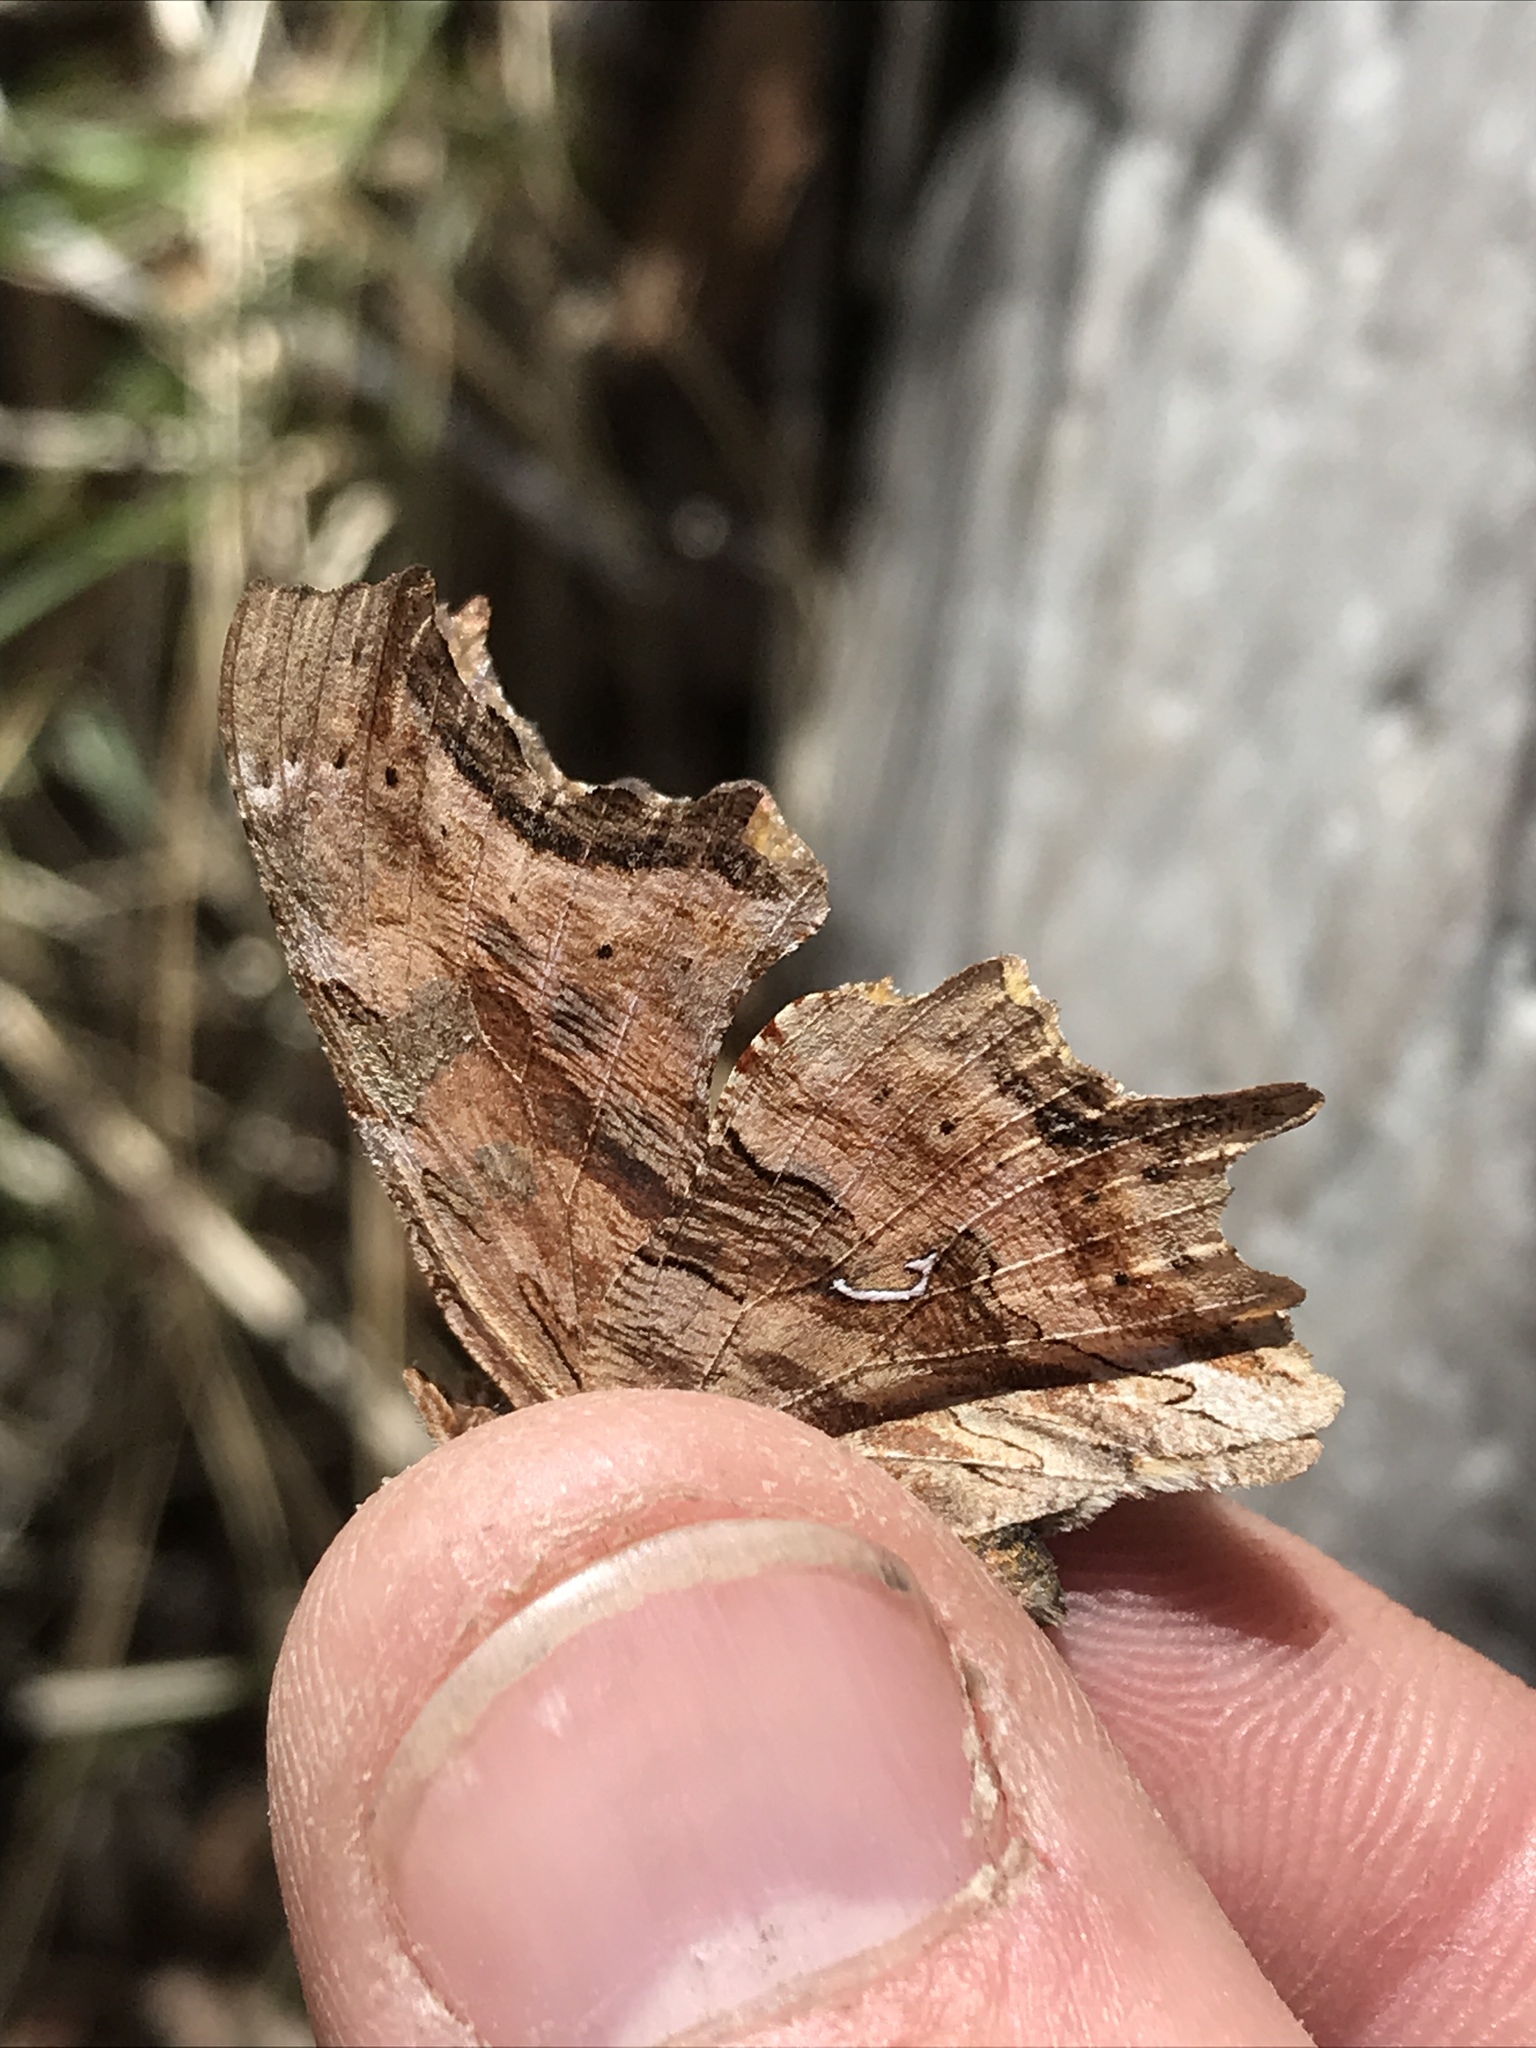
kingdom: Animalia
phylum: Arthropoda
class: Insecta
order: Lepidoptera
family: Nymphalidae
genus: Polygonia
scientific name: Polygonia satyrus
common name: Satyr angle wing
